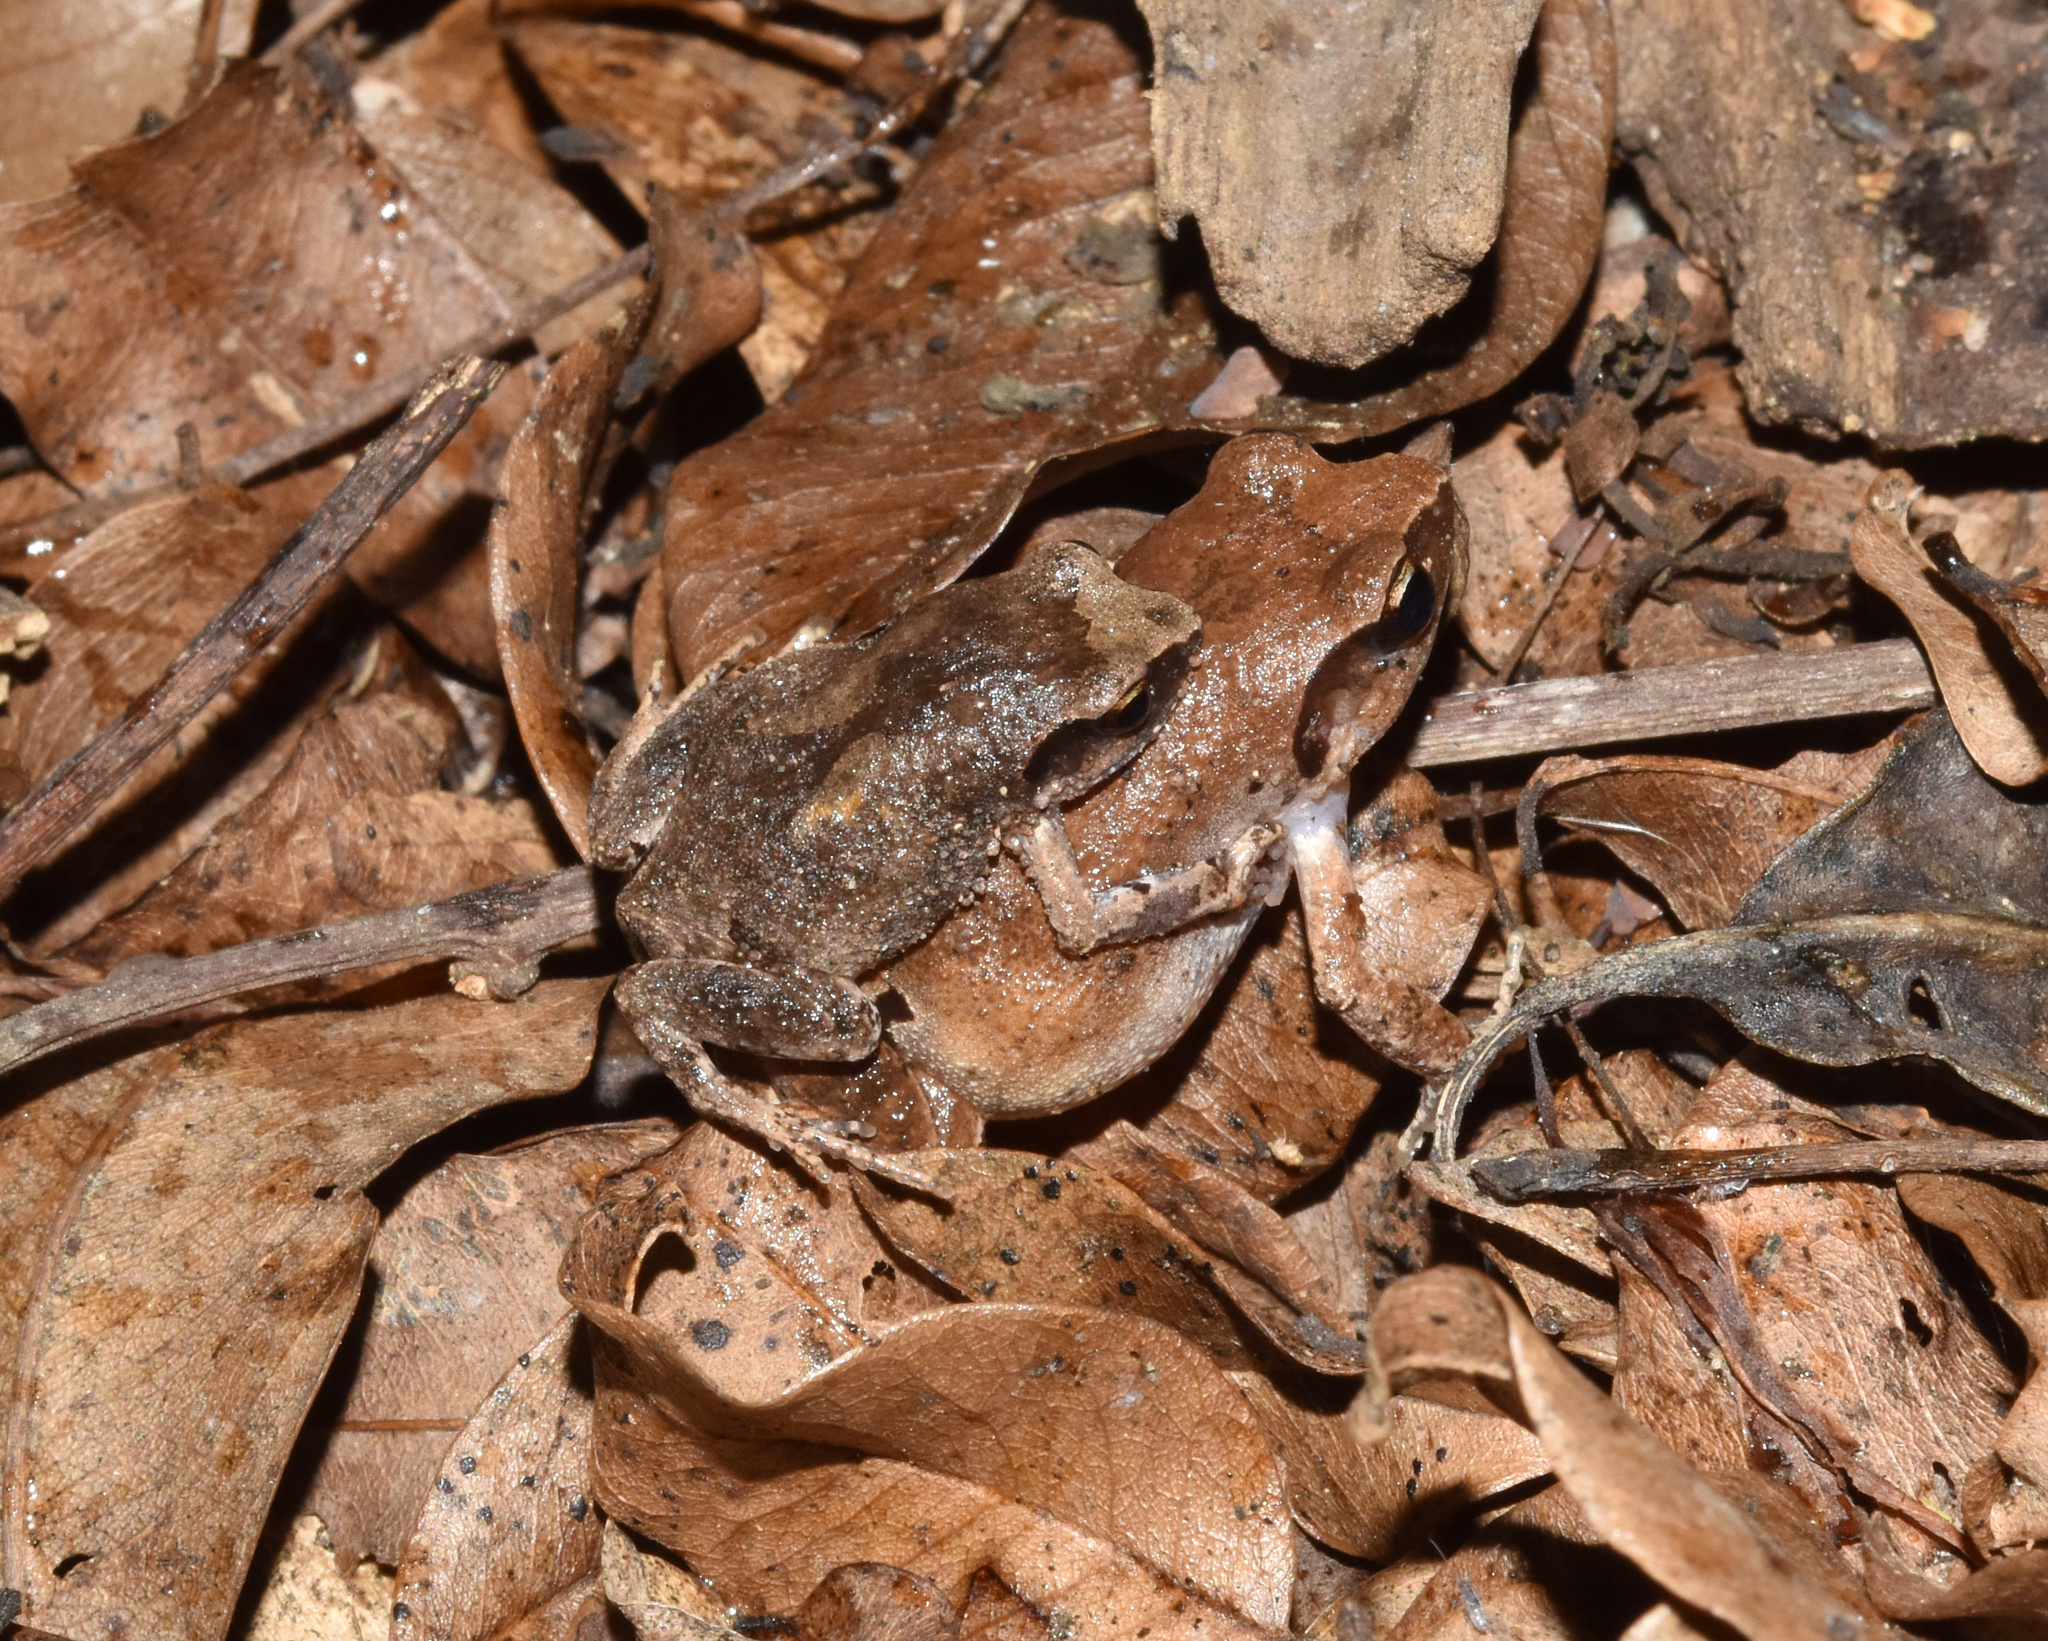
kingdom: Animalia
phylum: Chordata
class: Amphibia
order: Anura
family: Arthroleptidae
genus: Arthroleptis
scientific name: Arthroleptis wahlbergii
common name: Bush squeaker
